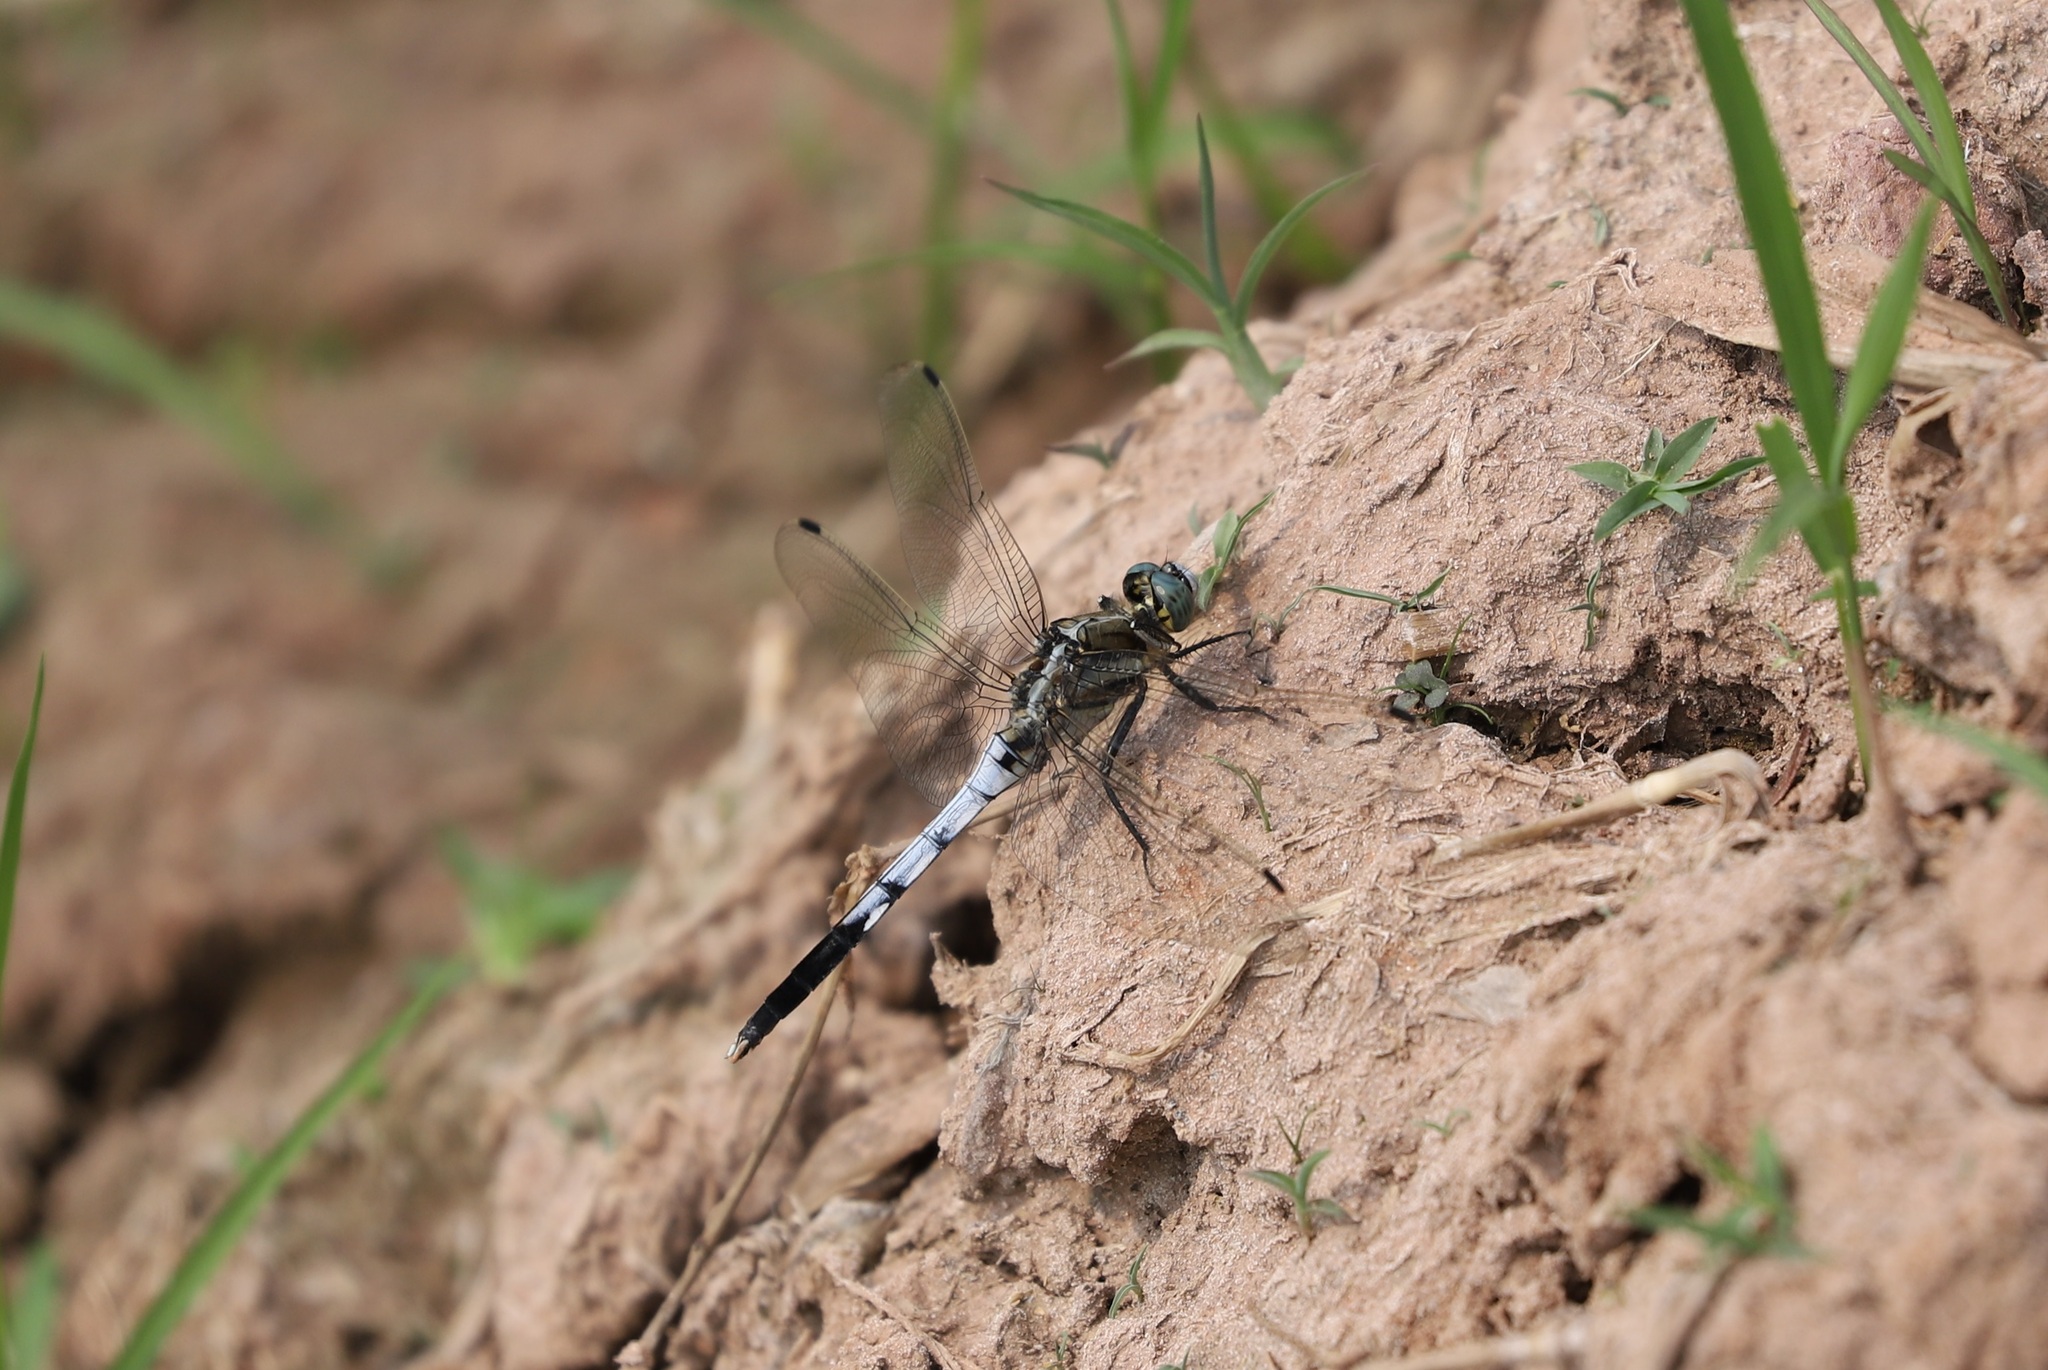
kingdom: Animalia
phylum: Arthropoda
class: Insecta
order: Odonata
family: Libellulidae
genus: Orthetrum
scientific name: Orthetrum albistylum
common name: White-tailed skimmer
